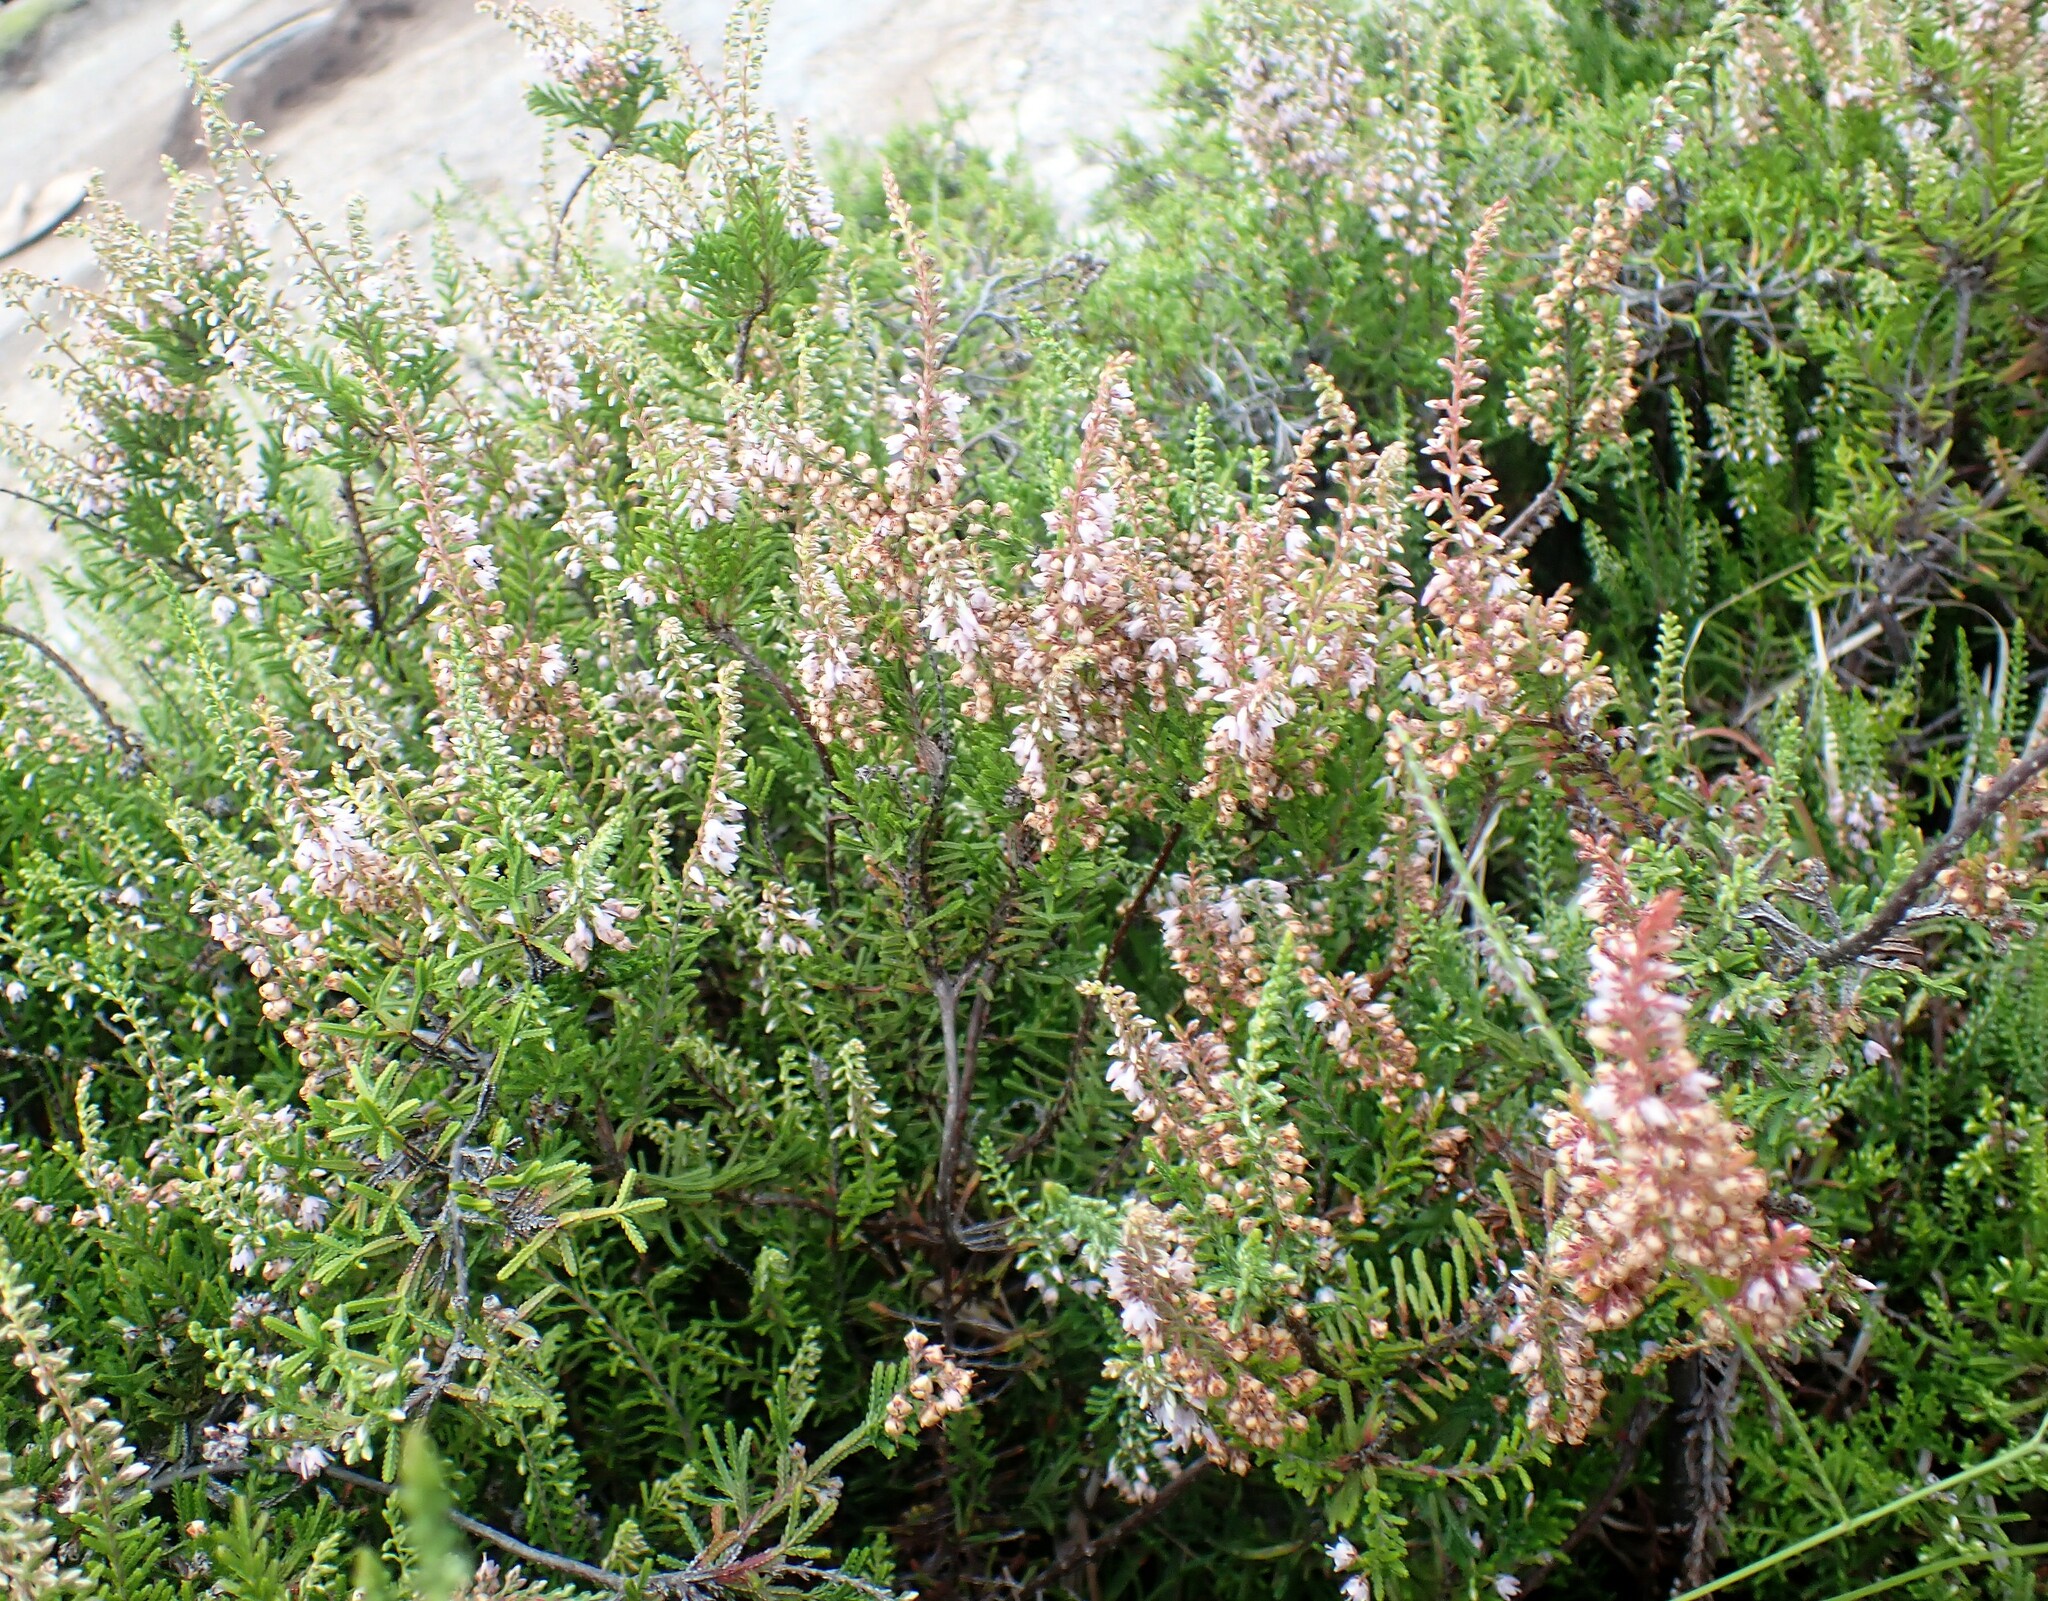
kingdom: Plantae
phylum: Tracheophyta
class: Magnoliopsida
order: Ericales
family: Ericaceae
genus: Calluna
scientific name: Calluna vulgaris
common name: Heather
